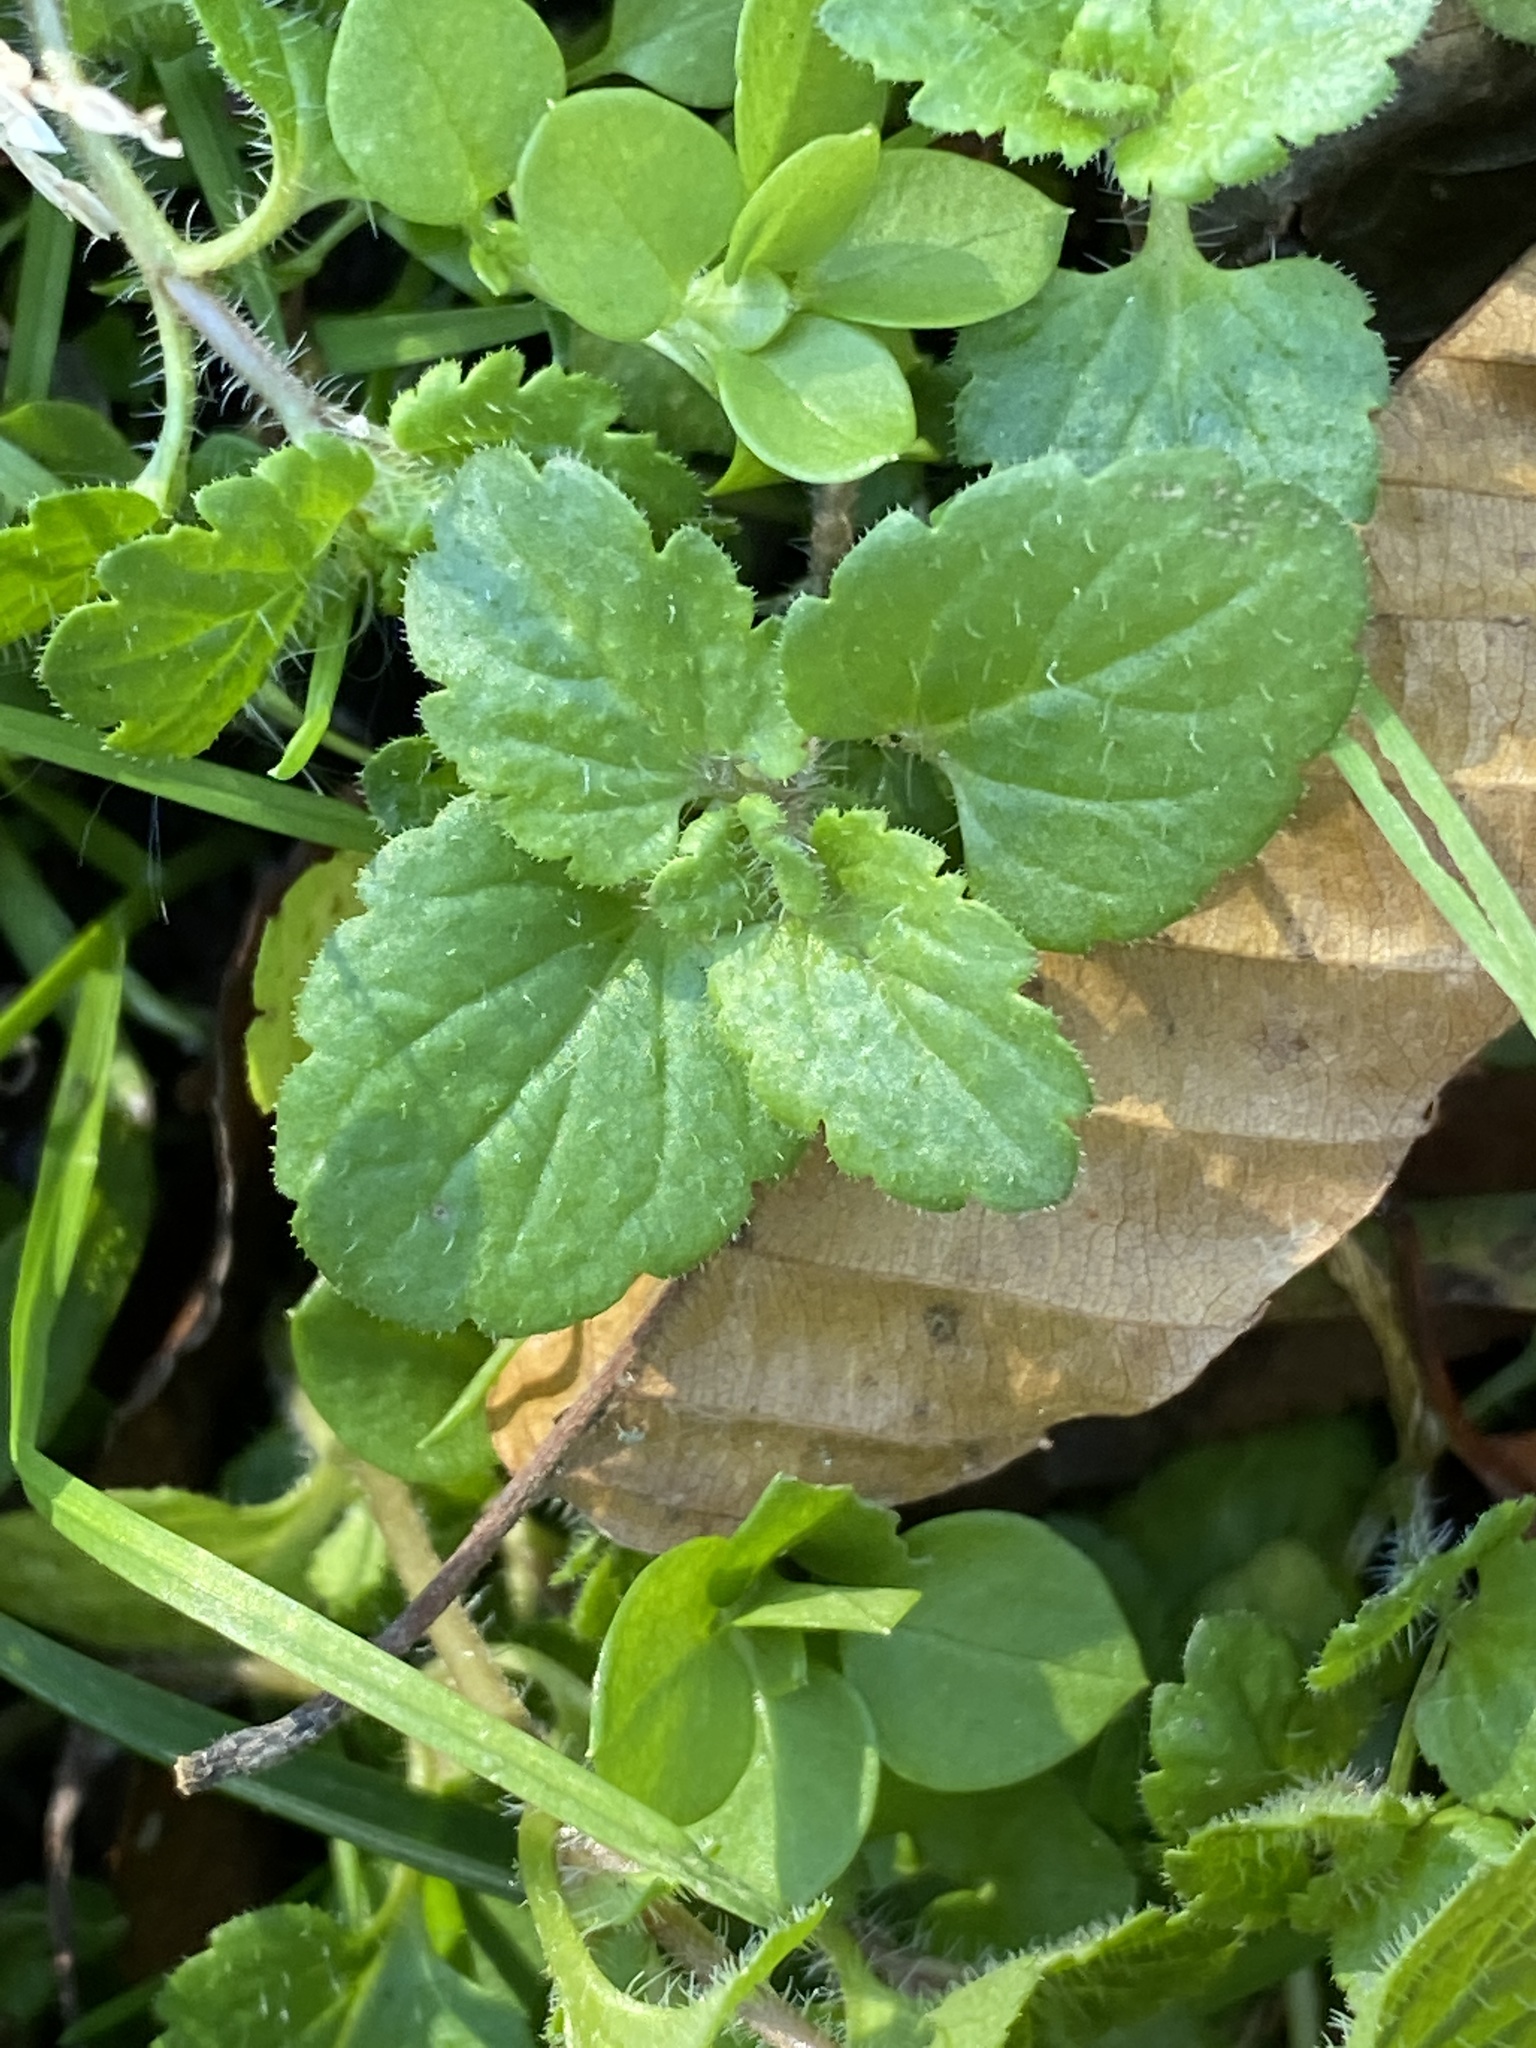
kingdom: Plantae
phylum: Tracheophyta
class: Magnoliopsida
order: Lamiales
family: Plantaginaceae
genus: Veronica
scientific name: Veronica persica
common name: Common field-speedwell
